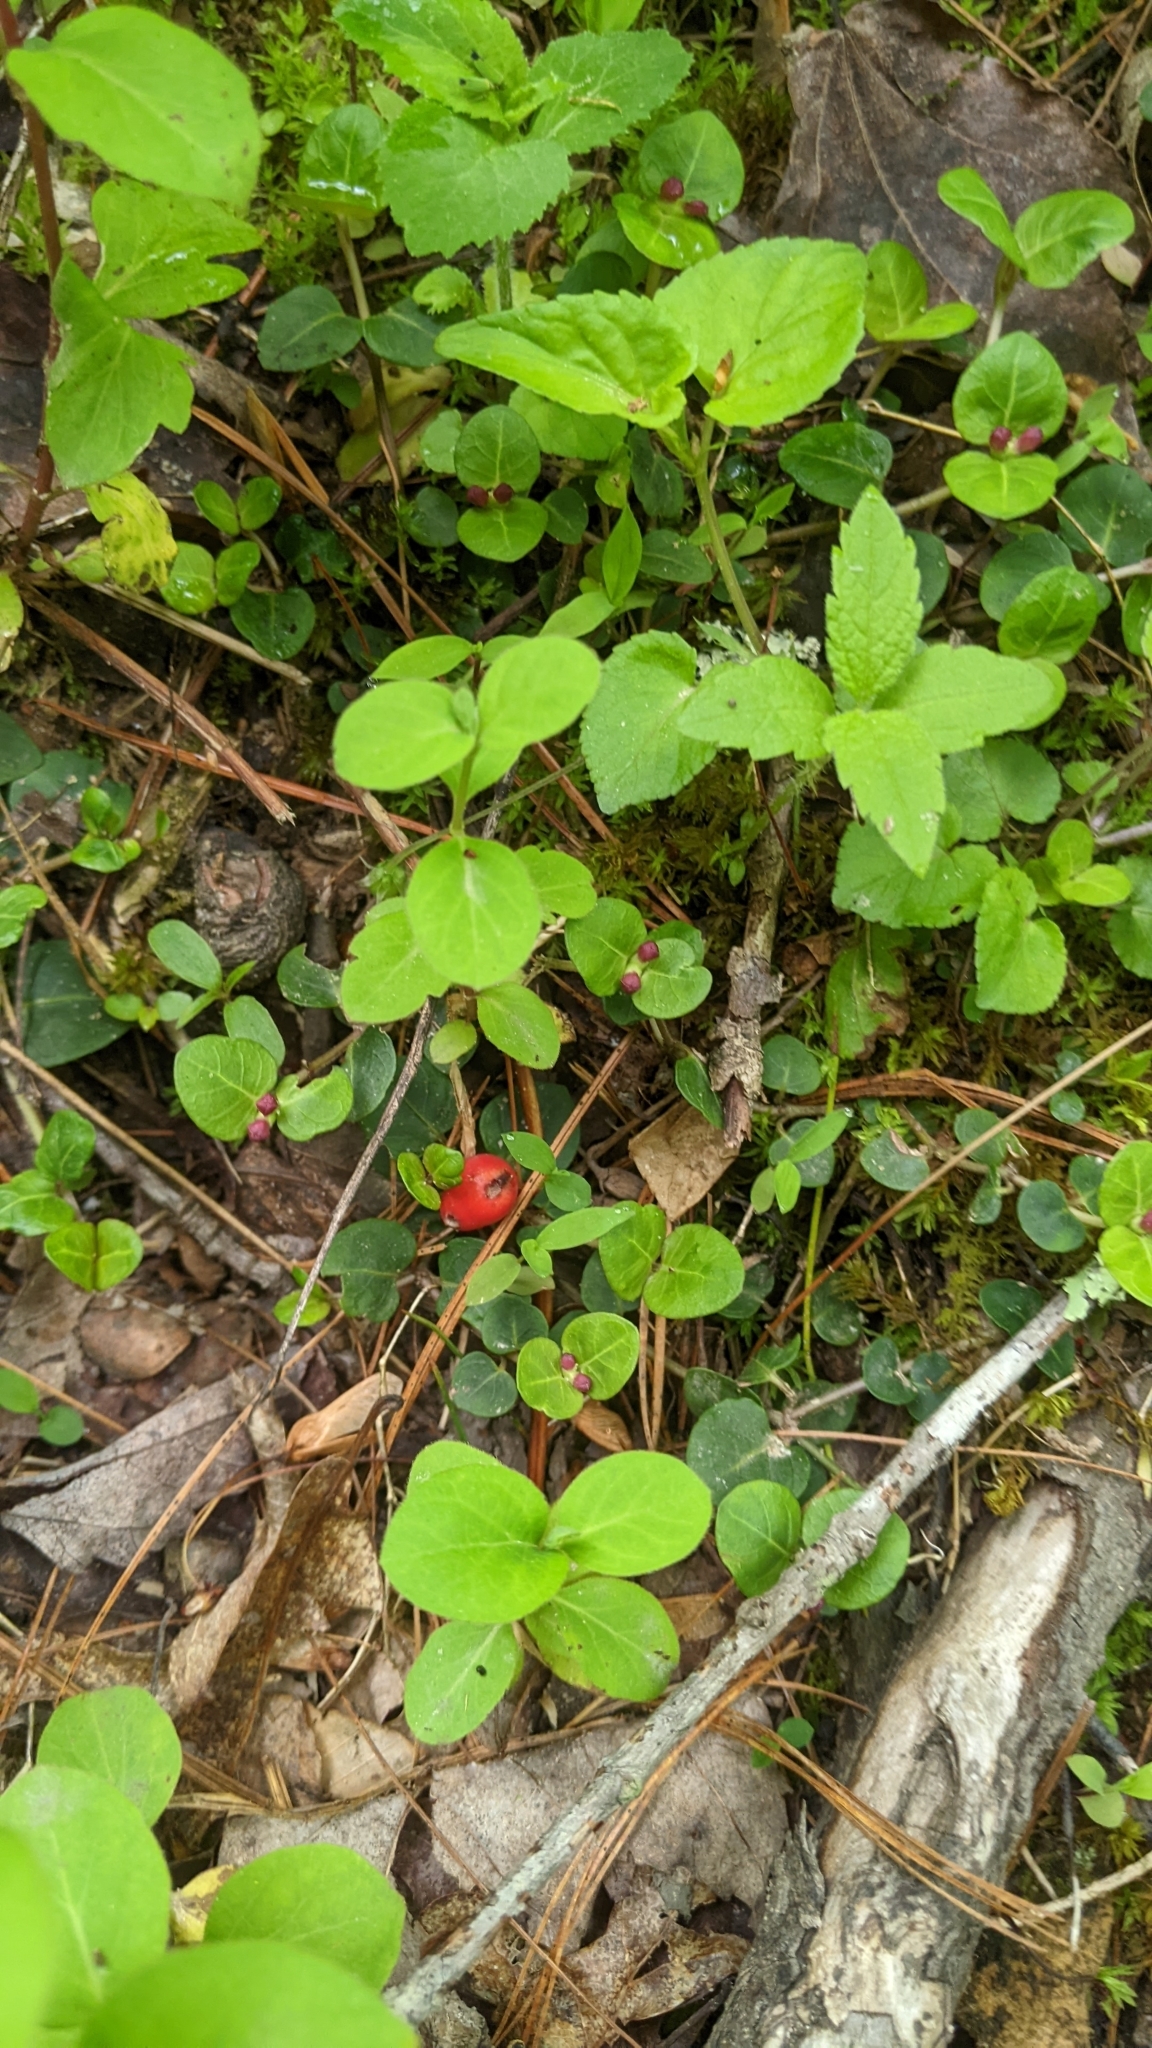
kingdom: Plantae
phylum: Tracheophyta
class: Magnoliopsida
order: Gentianales
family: Rubiaceae
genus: Mitchella
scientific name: Mitchella repens
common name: Partridge-berry
